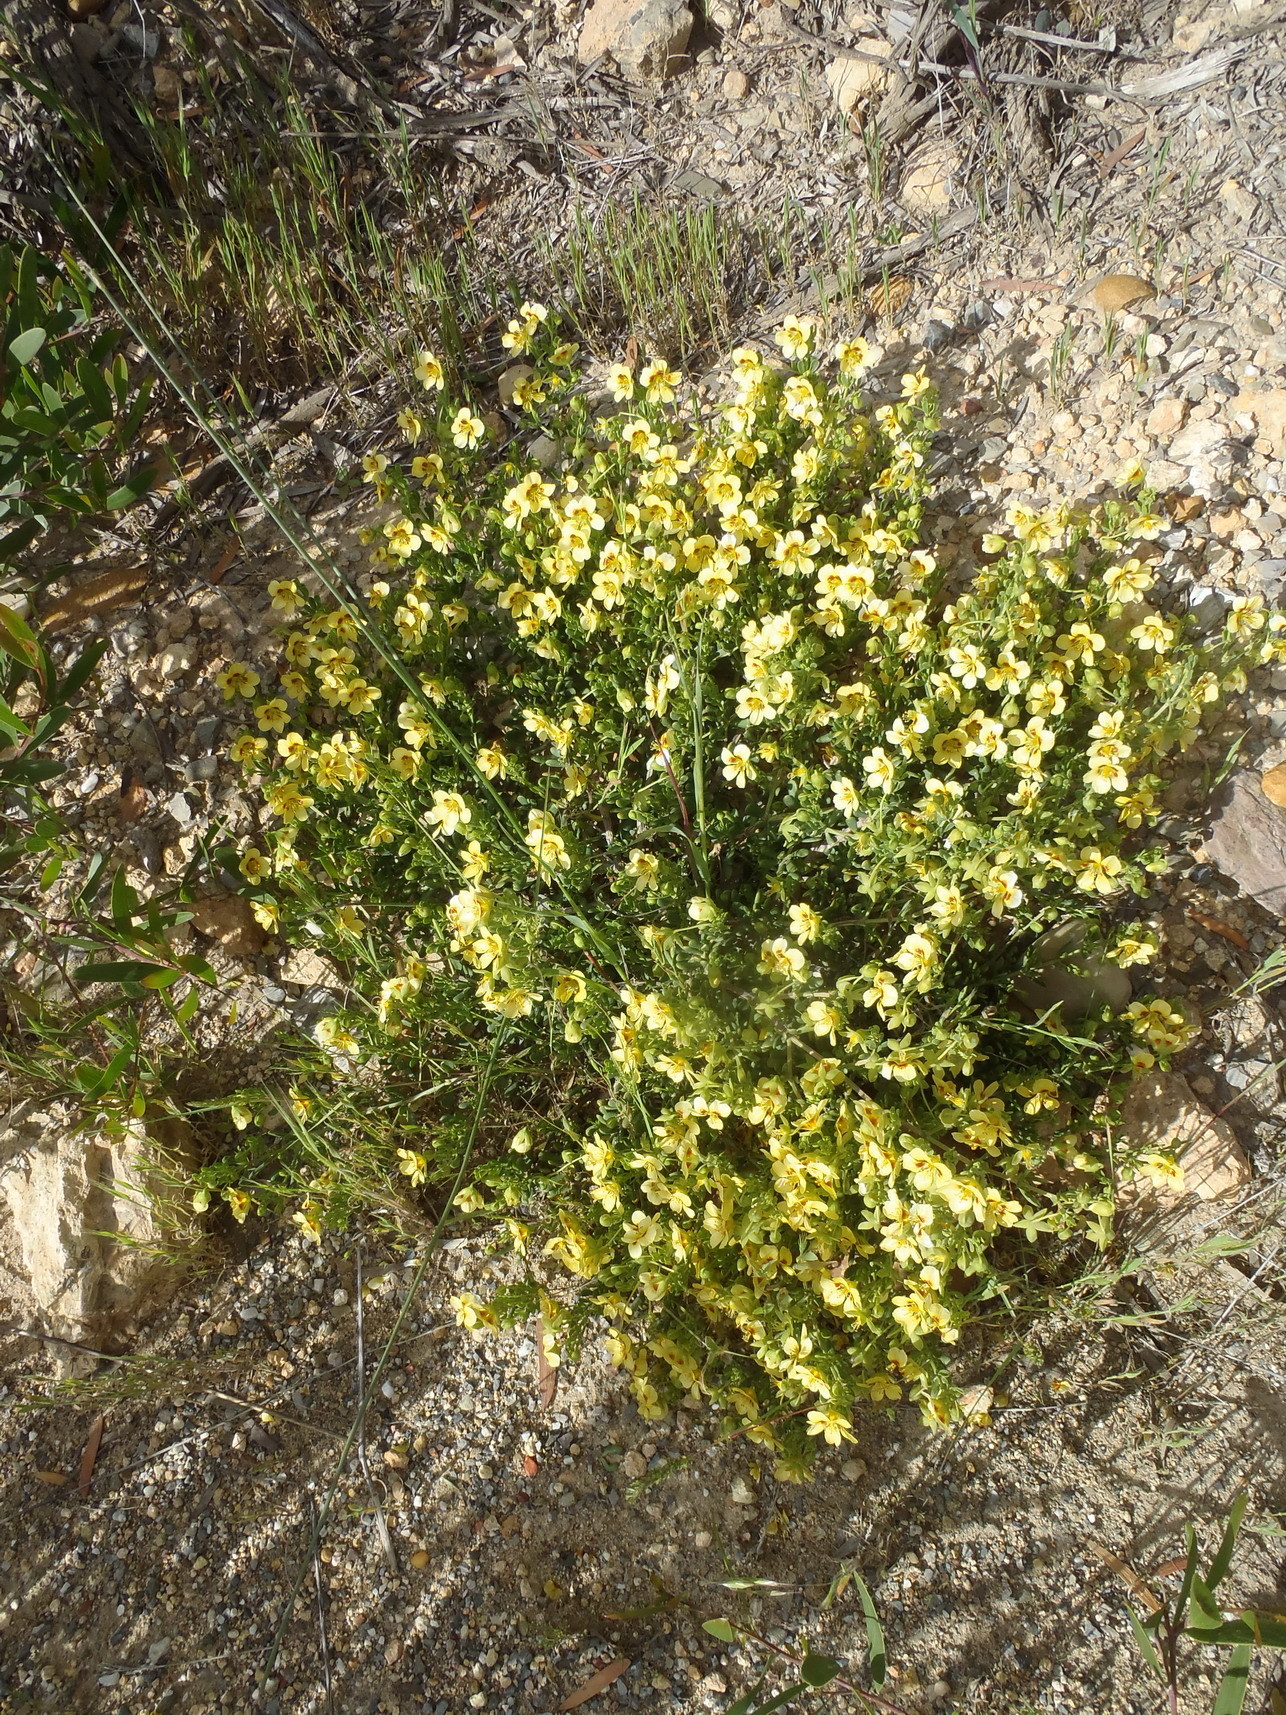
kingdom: Plantae
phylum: Tracheophyta
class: Magnoliopsida
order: Zygophyllales
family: Zygophyllaceae
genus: Roepera
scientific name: Roepera flexuosa
